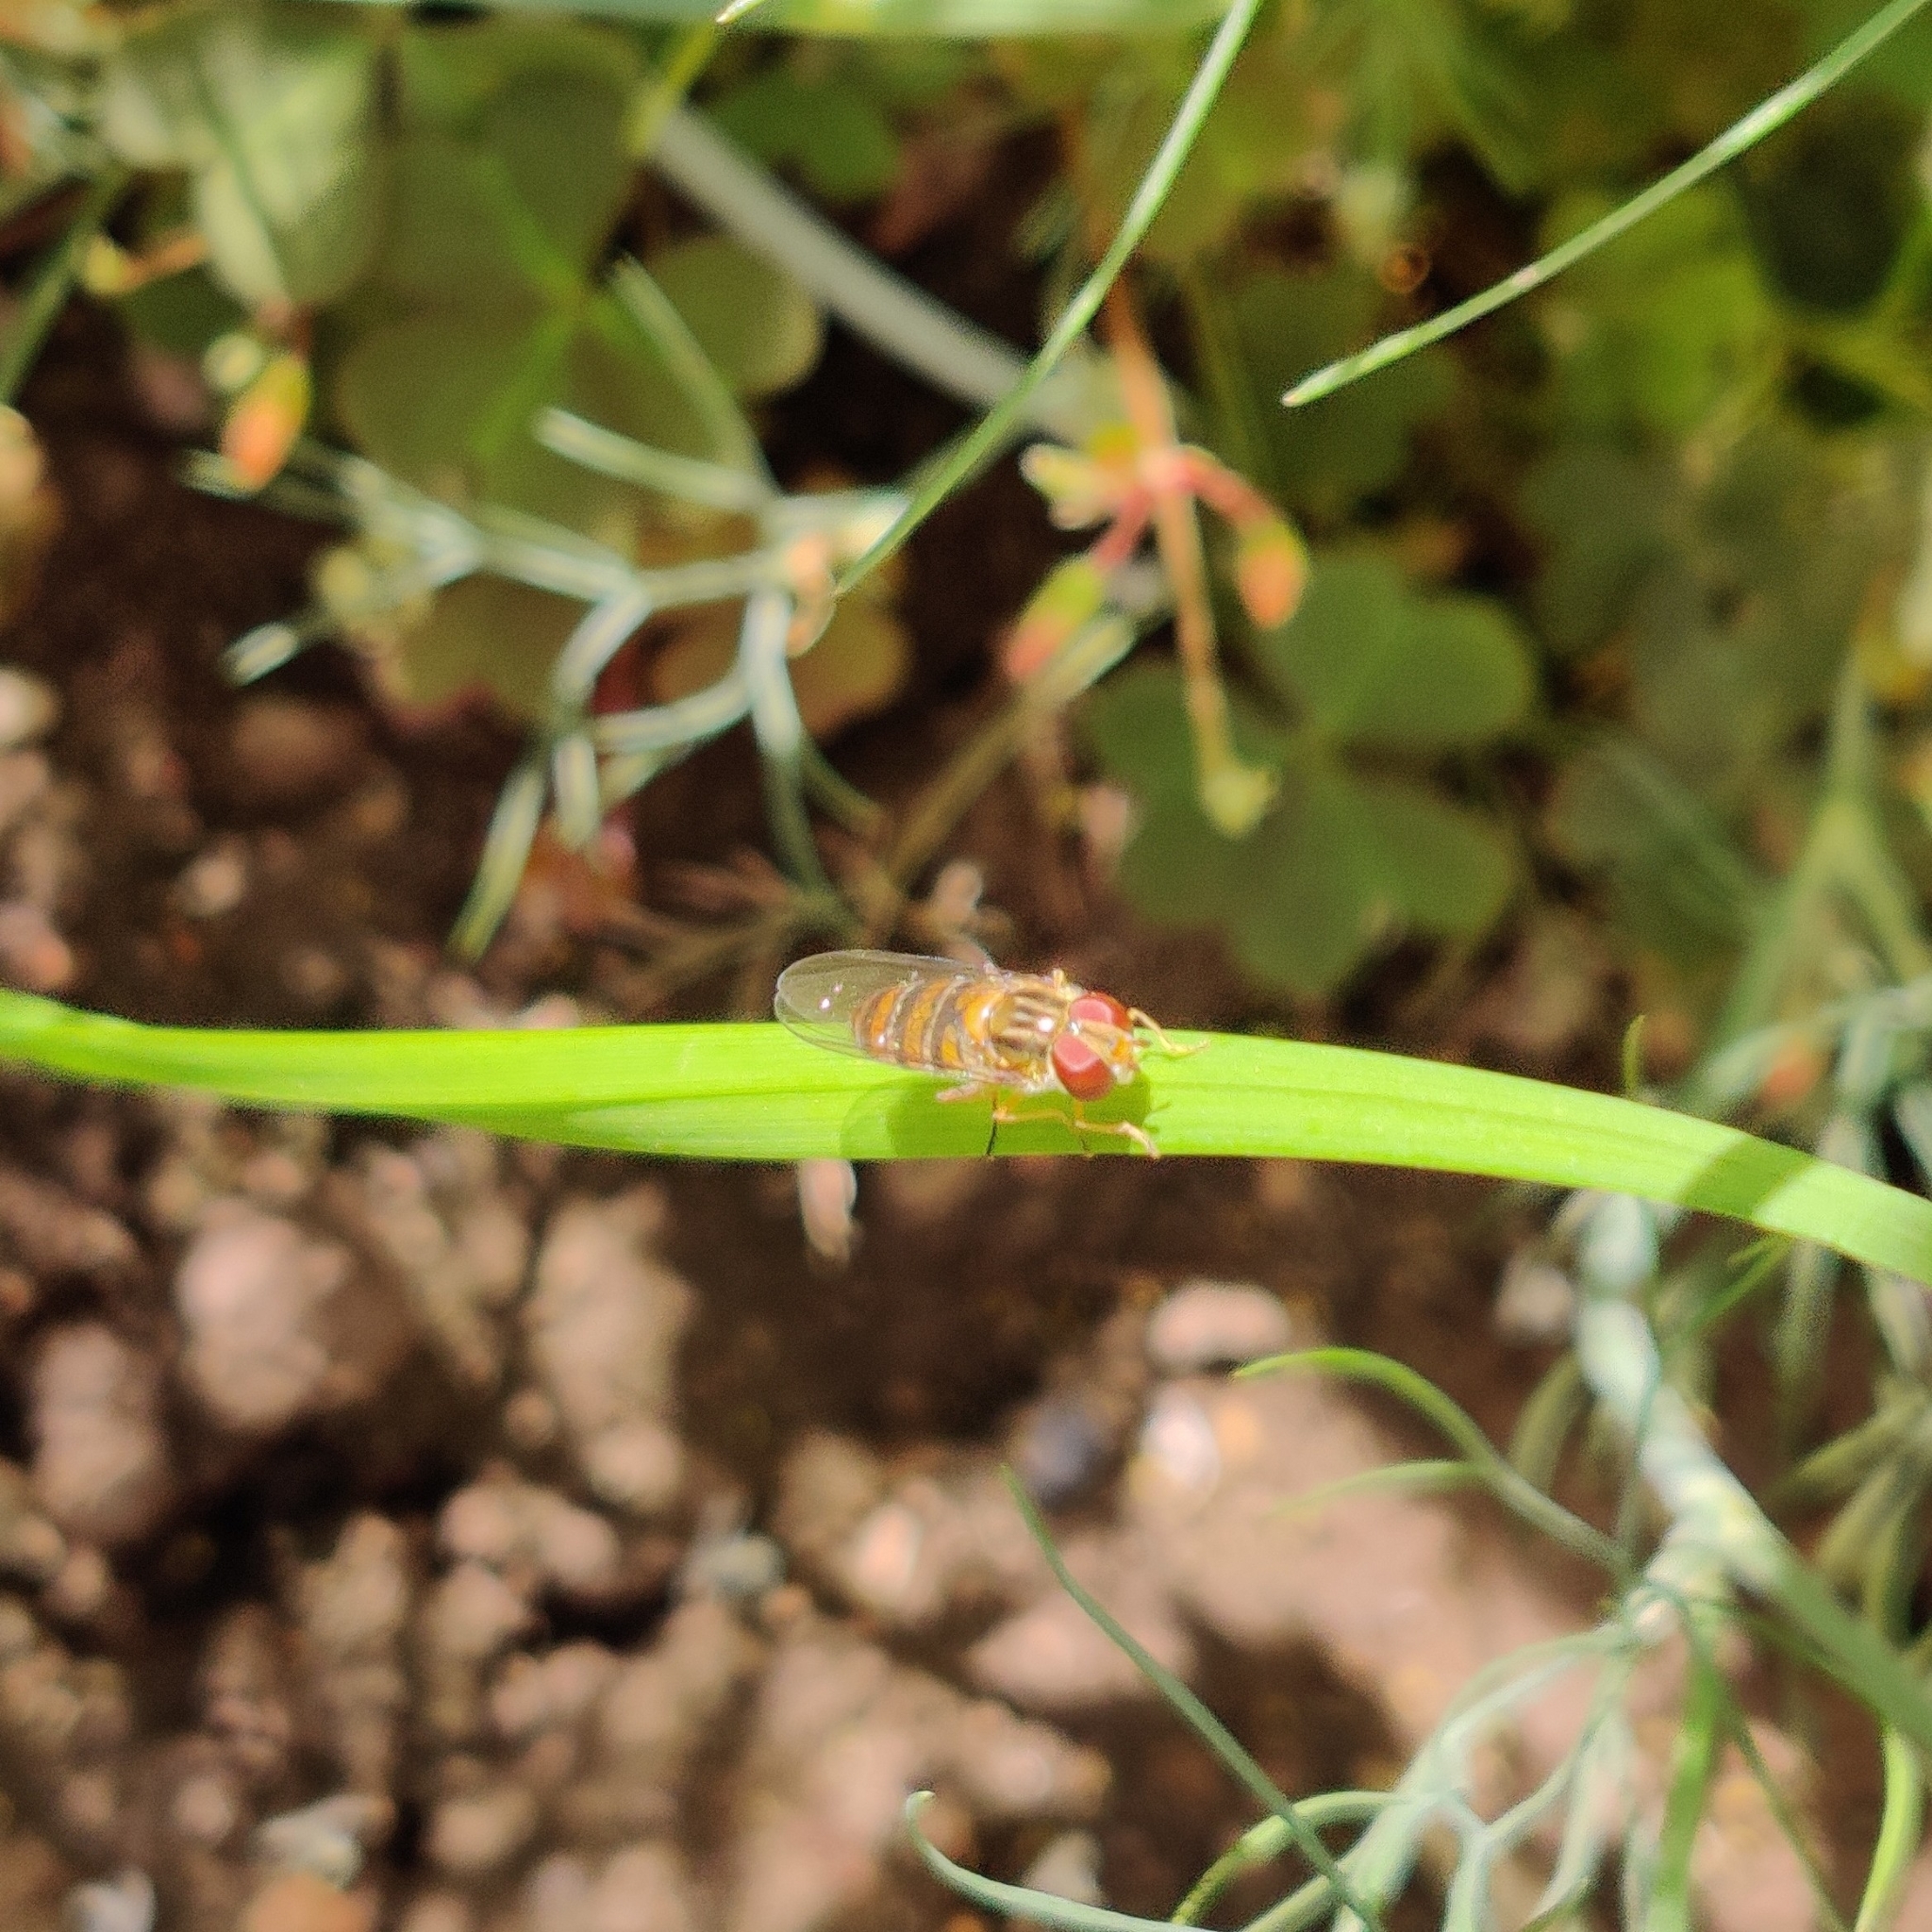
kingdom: Animalia
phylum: Arthropoda
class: Insecta
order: Diptera
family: Syrphidae
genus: Episyrphus
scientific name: Episyrphus balteatus
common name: Marmalade hoverfly
